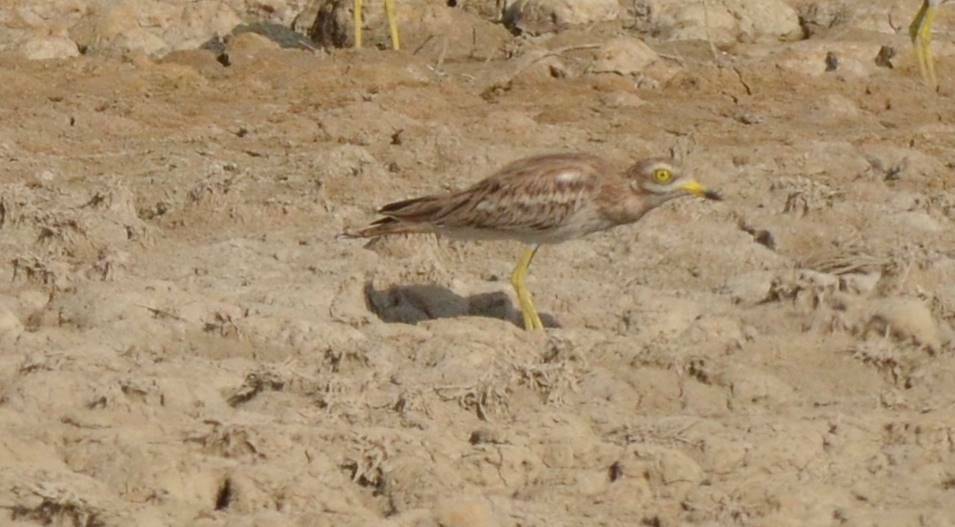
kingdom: Animalia
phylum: Chordata
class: Aves
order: Charadriiformes
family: Burhinidae
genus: Burhinus
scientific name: Burhinus oedicnemus
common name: Eurasian stone-curlew
